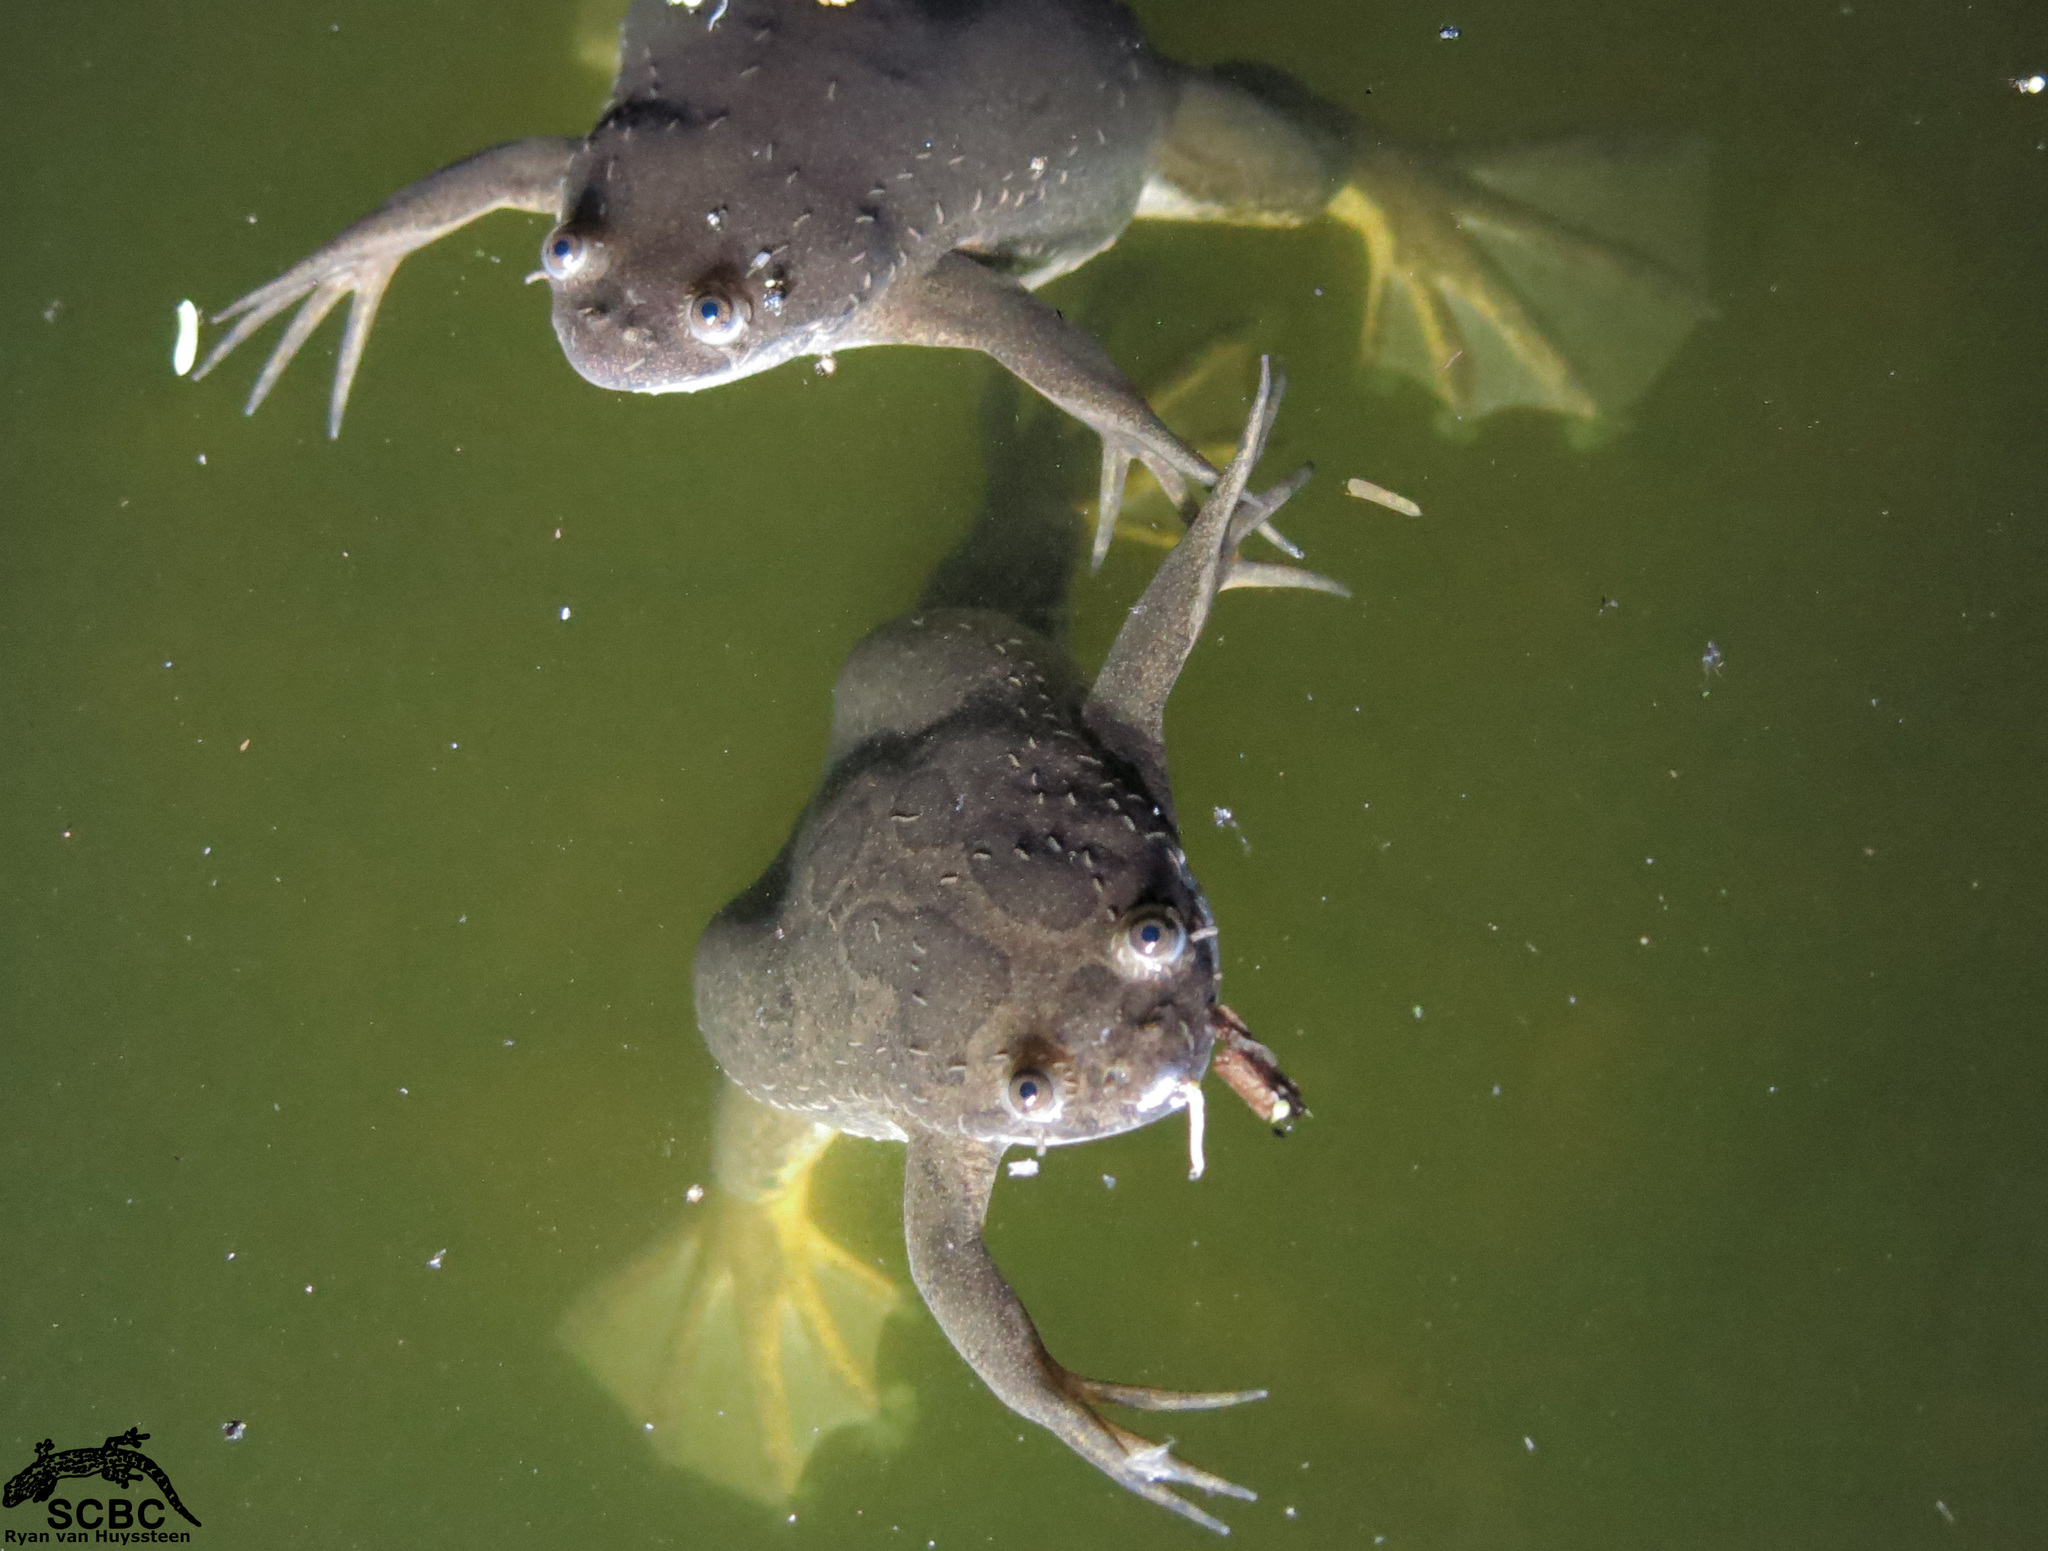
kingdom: Animalia
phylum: Chordata
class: Amphibia
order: Anura
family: Pipidae
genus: Xenopus
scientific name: Xenopus muelleri
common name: Muller's clawed frog
